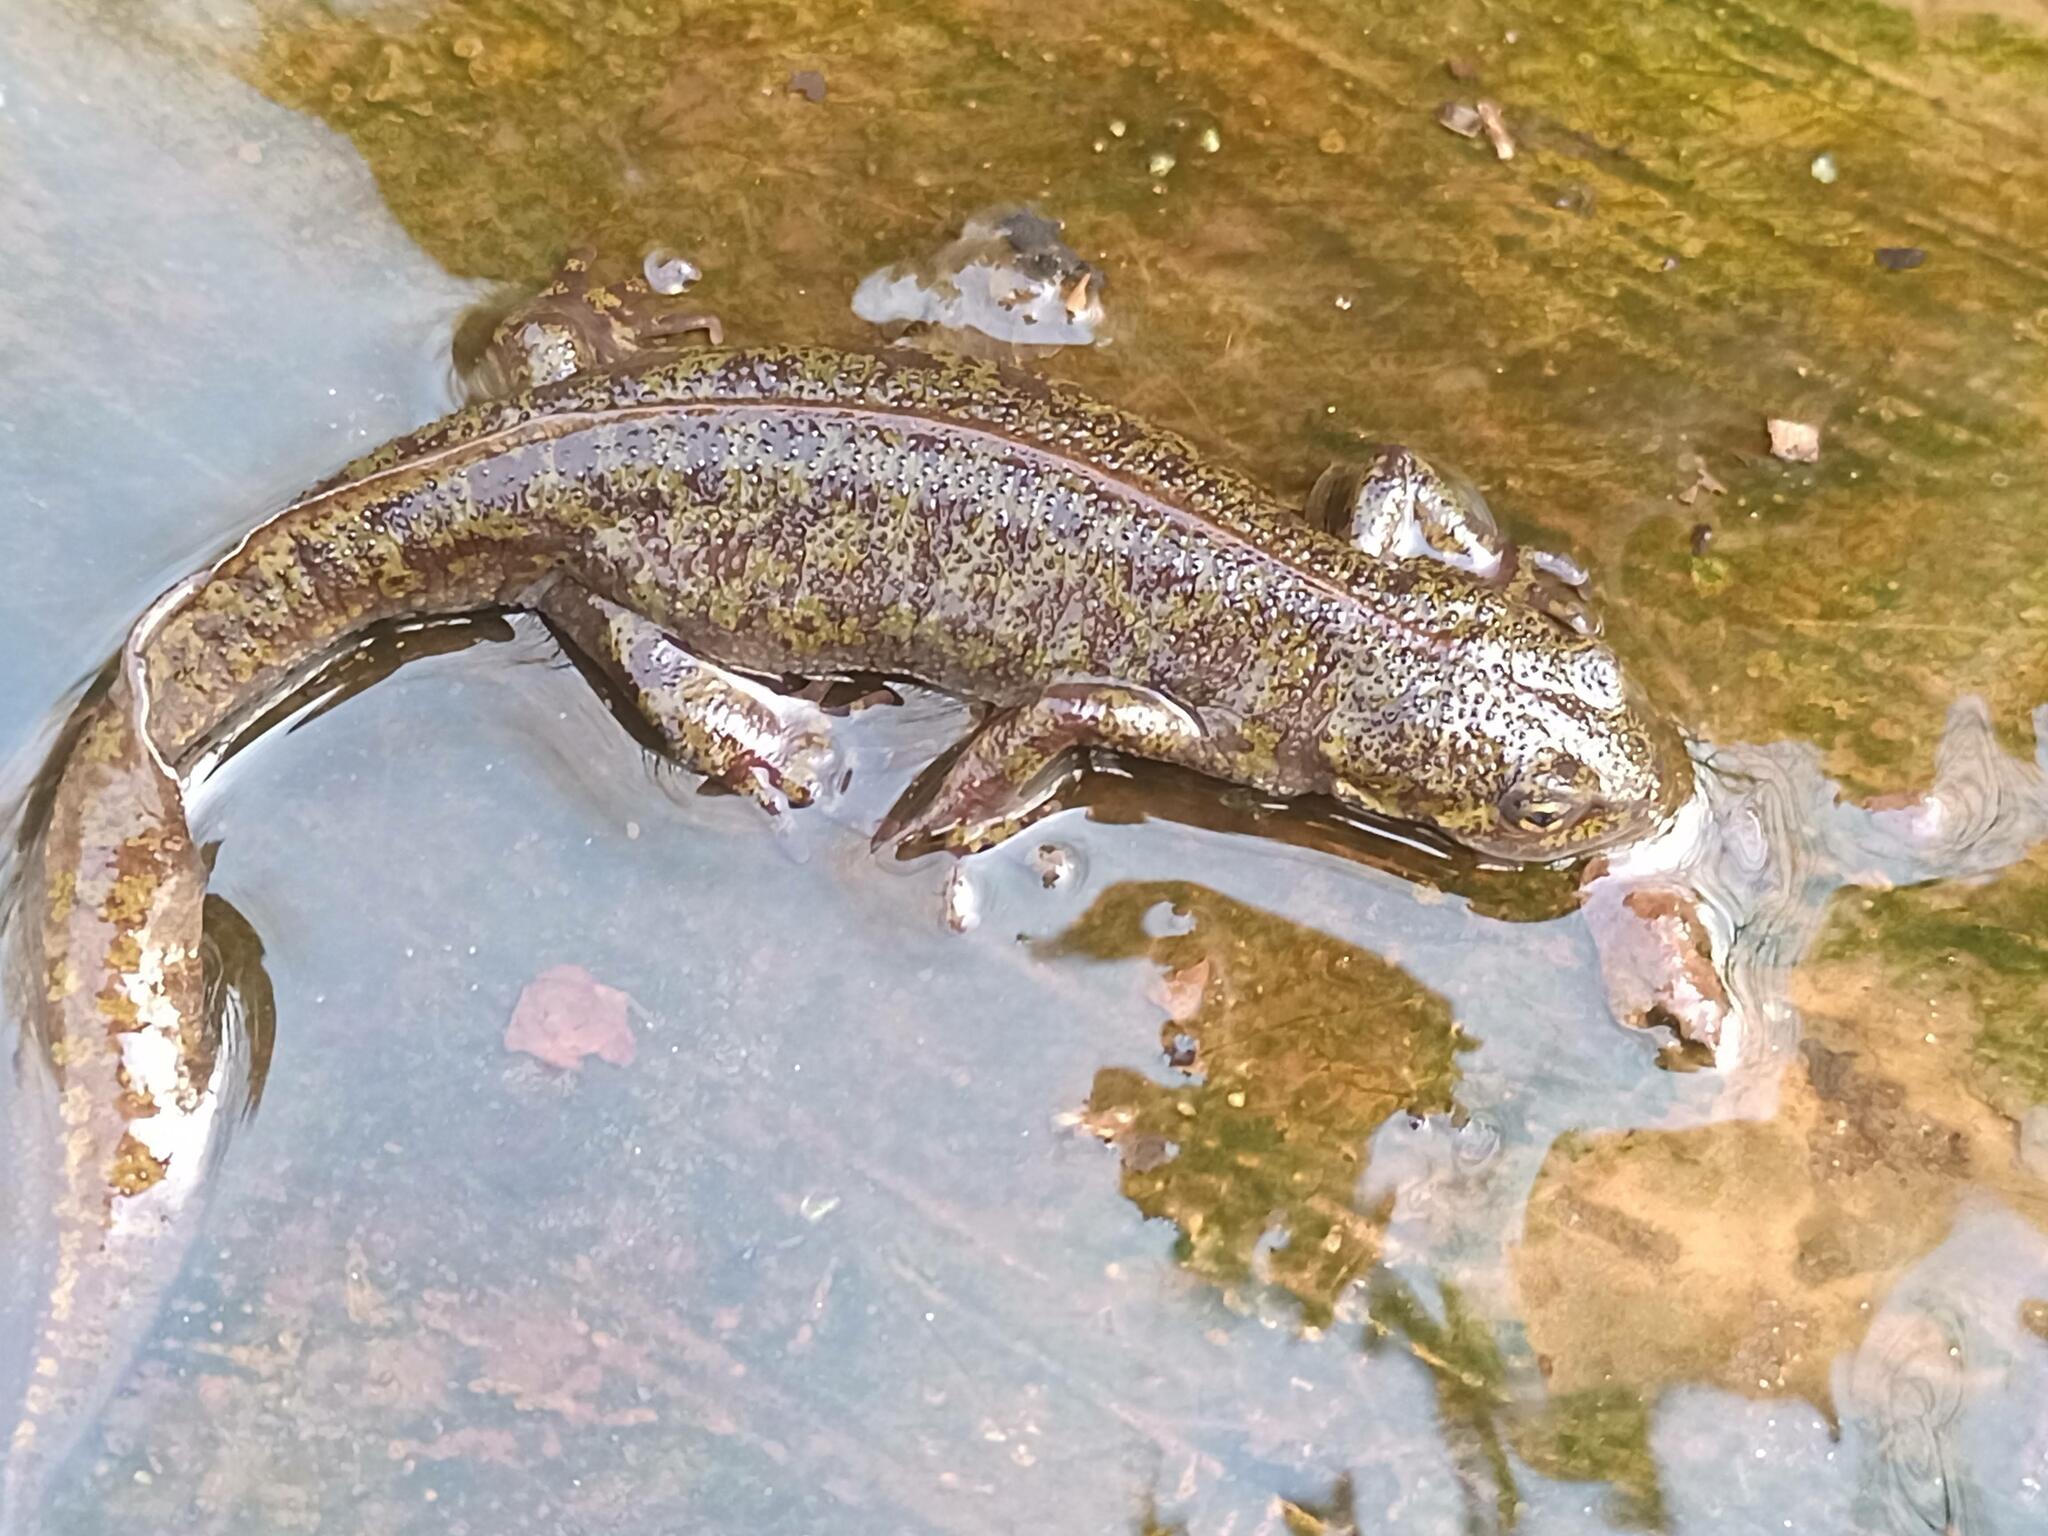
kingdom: Animalia
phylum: Chordata
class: Amphibia
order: Caudata
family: Salamandridae
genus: Triturus
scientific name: Triturus marmoratus
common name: Marbled newt
